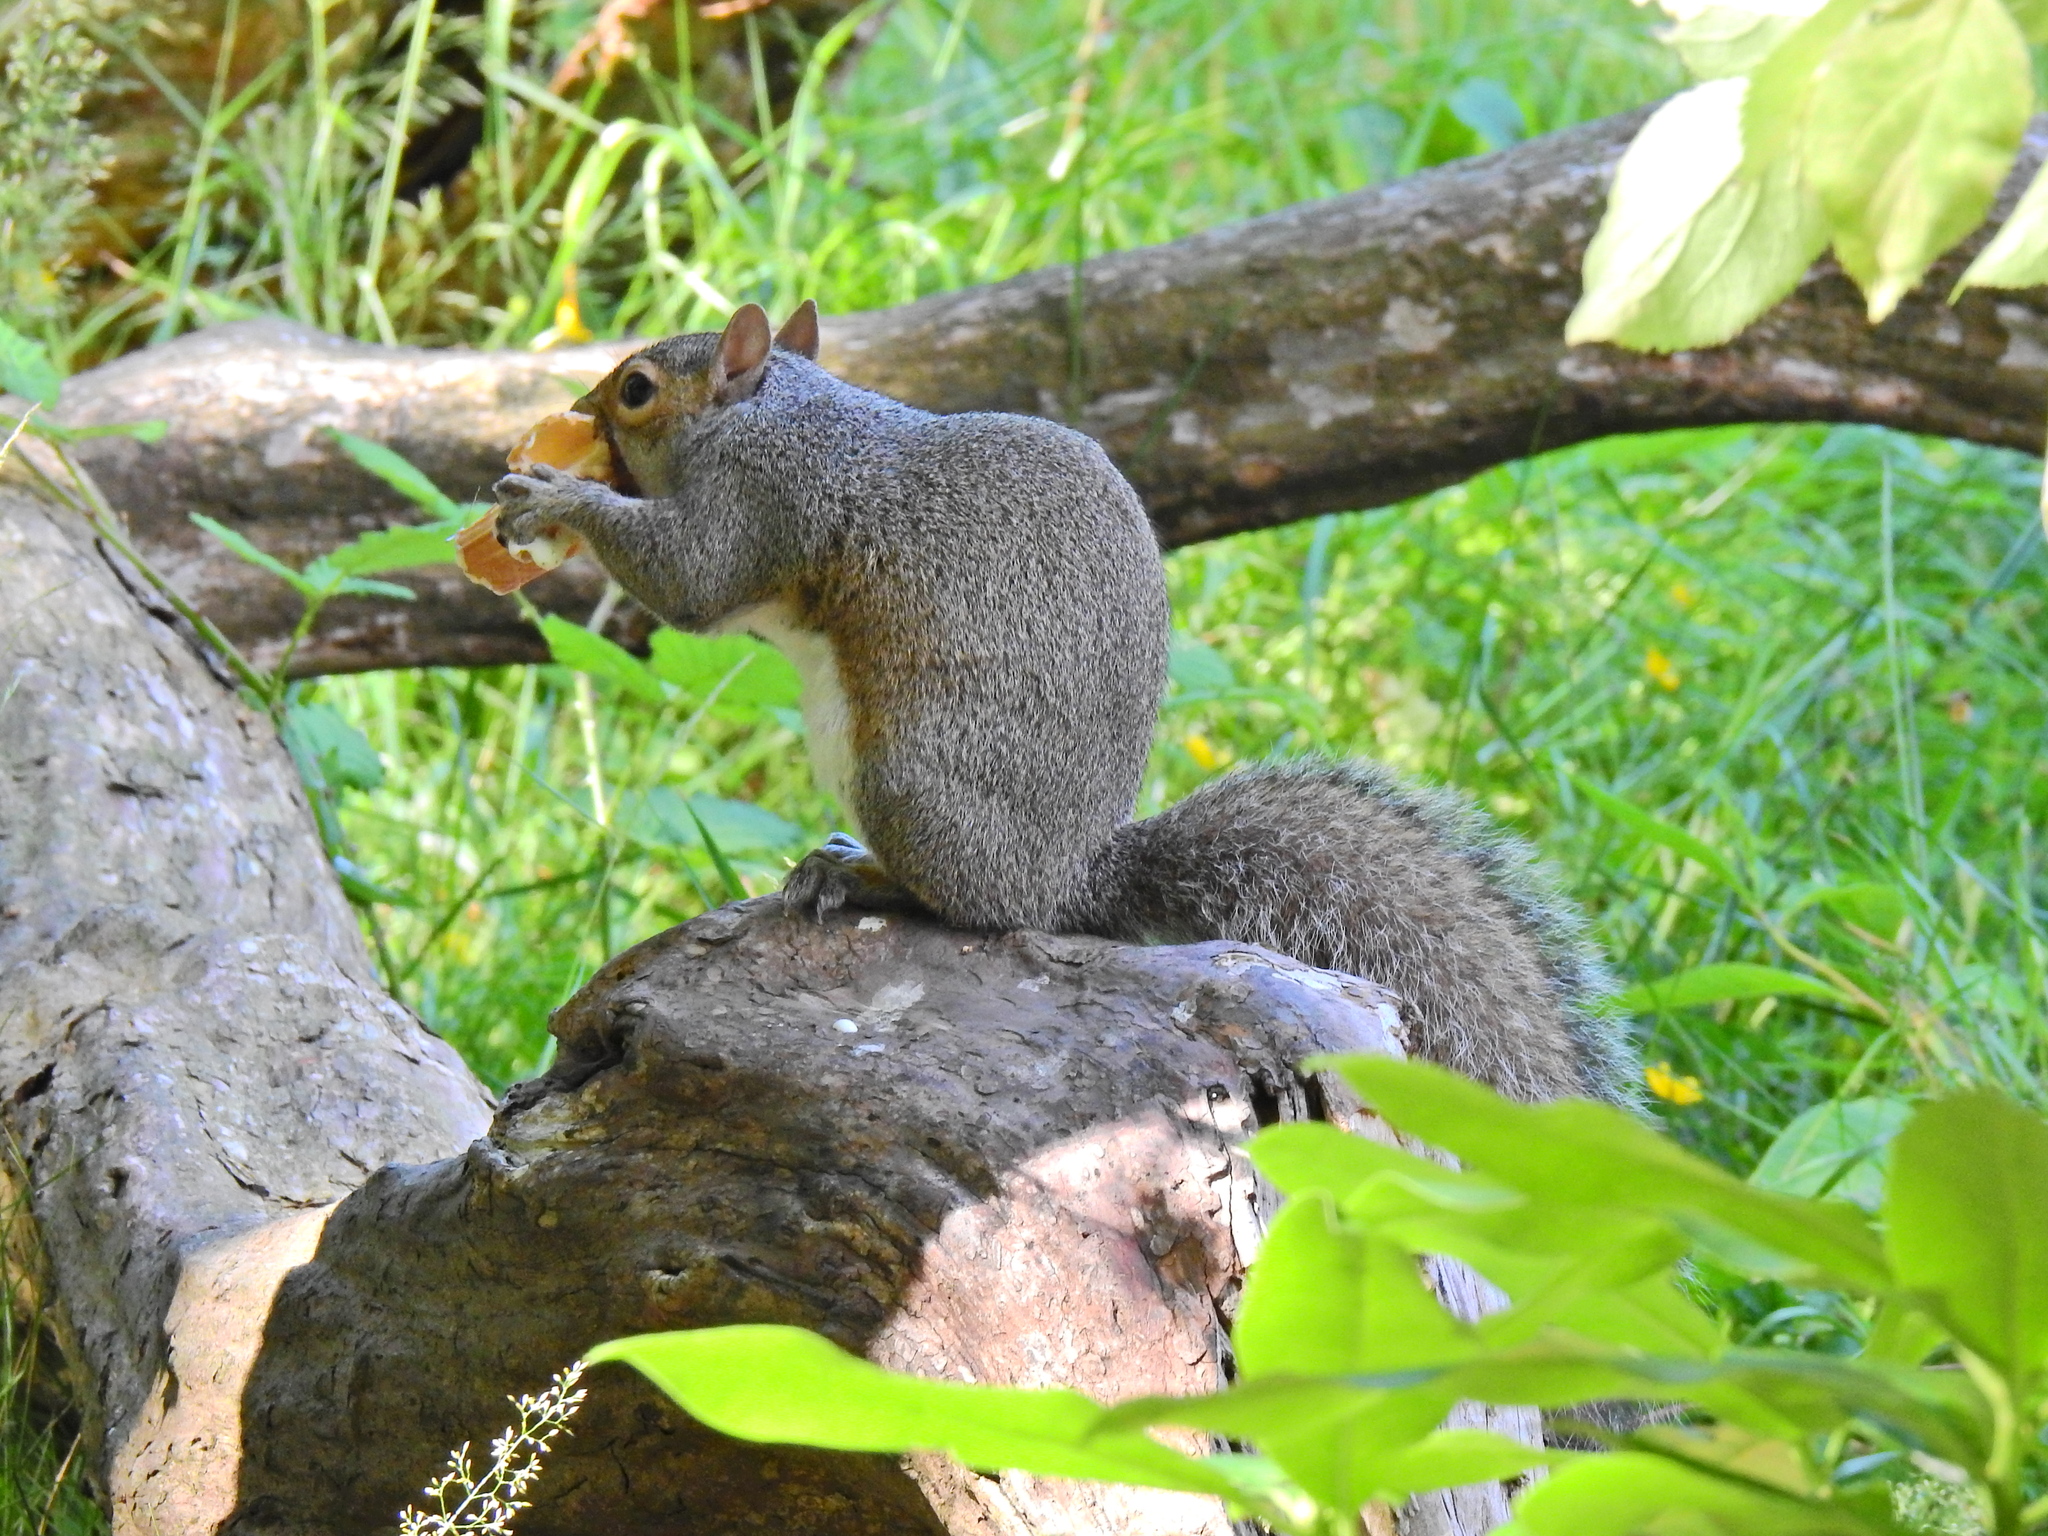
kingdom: Animalia
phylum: Chordata
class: Mammalia
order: Rodentia
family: Sciuridae
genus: Sciurus
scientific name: Sciurus carolinensis
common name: Eastern gray squirrel
